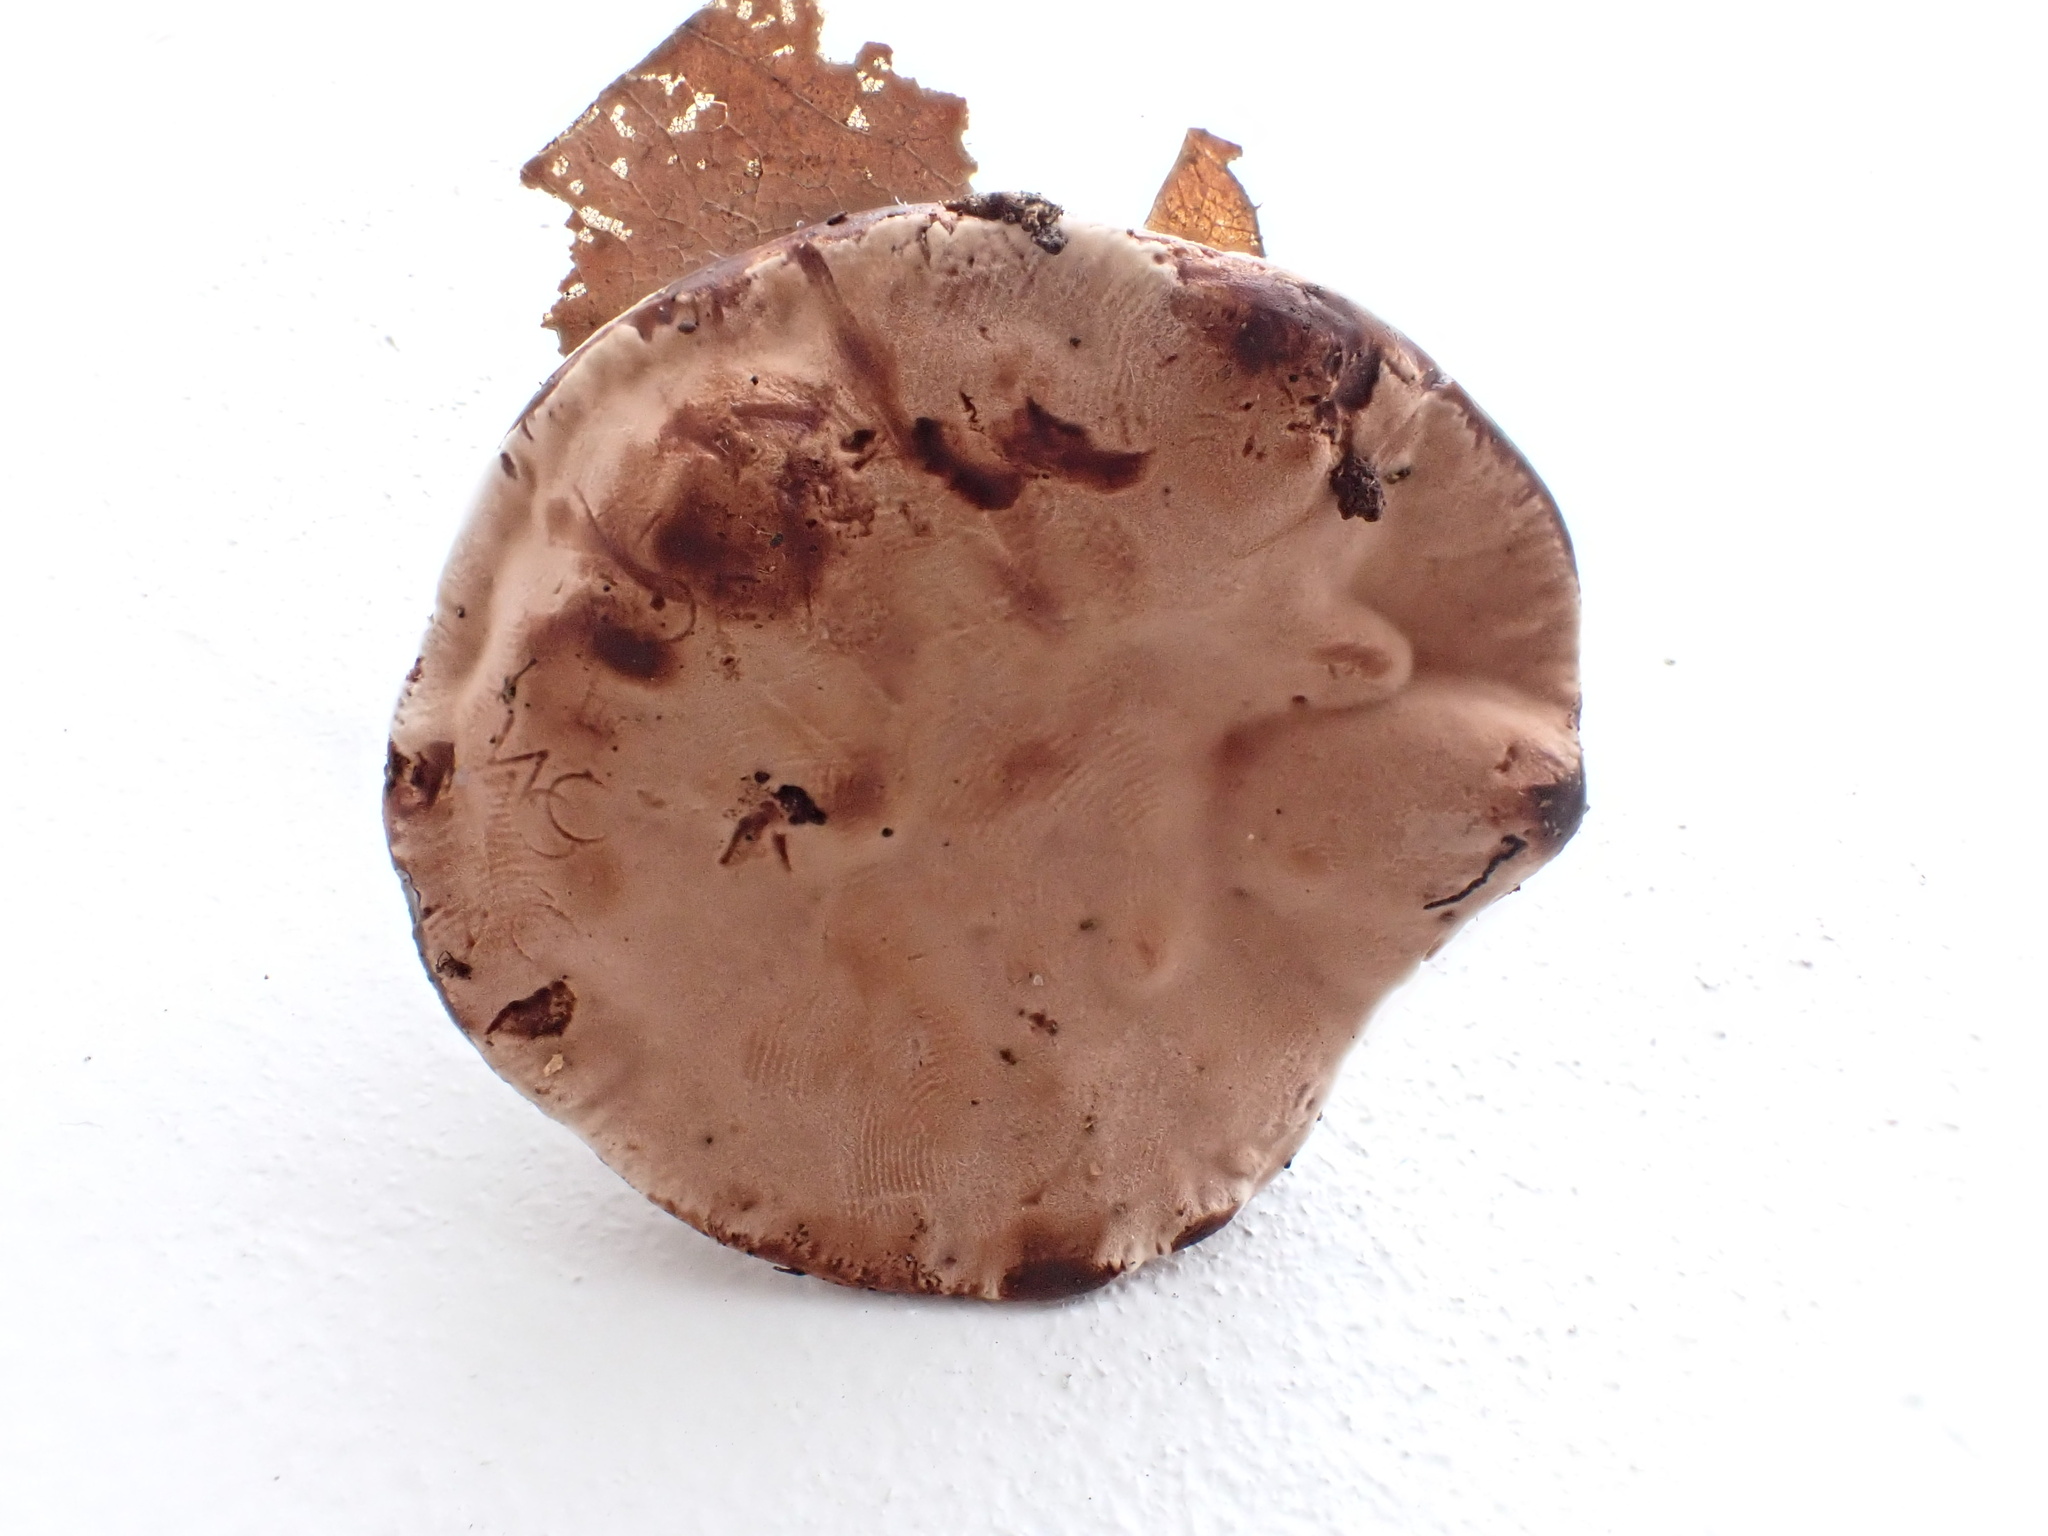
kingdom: Fungi
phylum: Basidiomycota
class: Agaricomycetes
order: Thelephorales
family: Bankeraceae
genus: Hydnellum
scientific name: Hydnellum spongiosipes
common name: Velvet tooth
